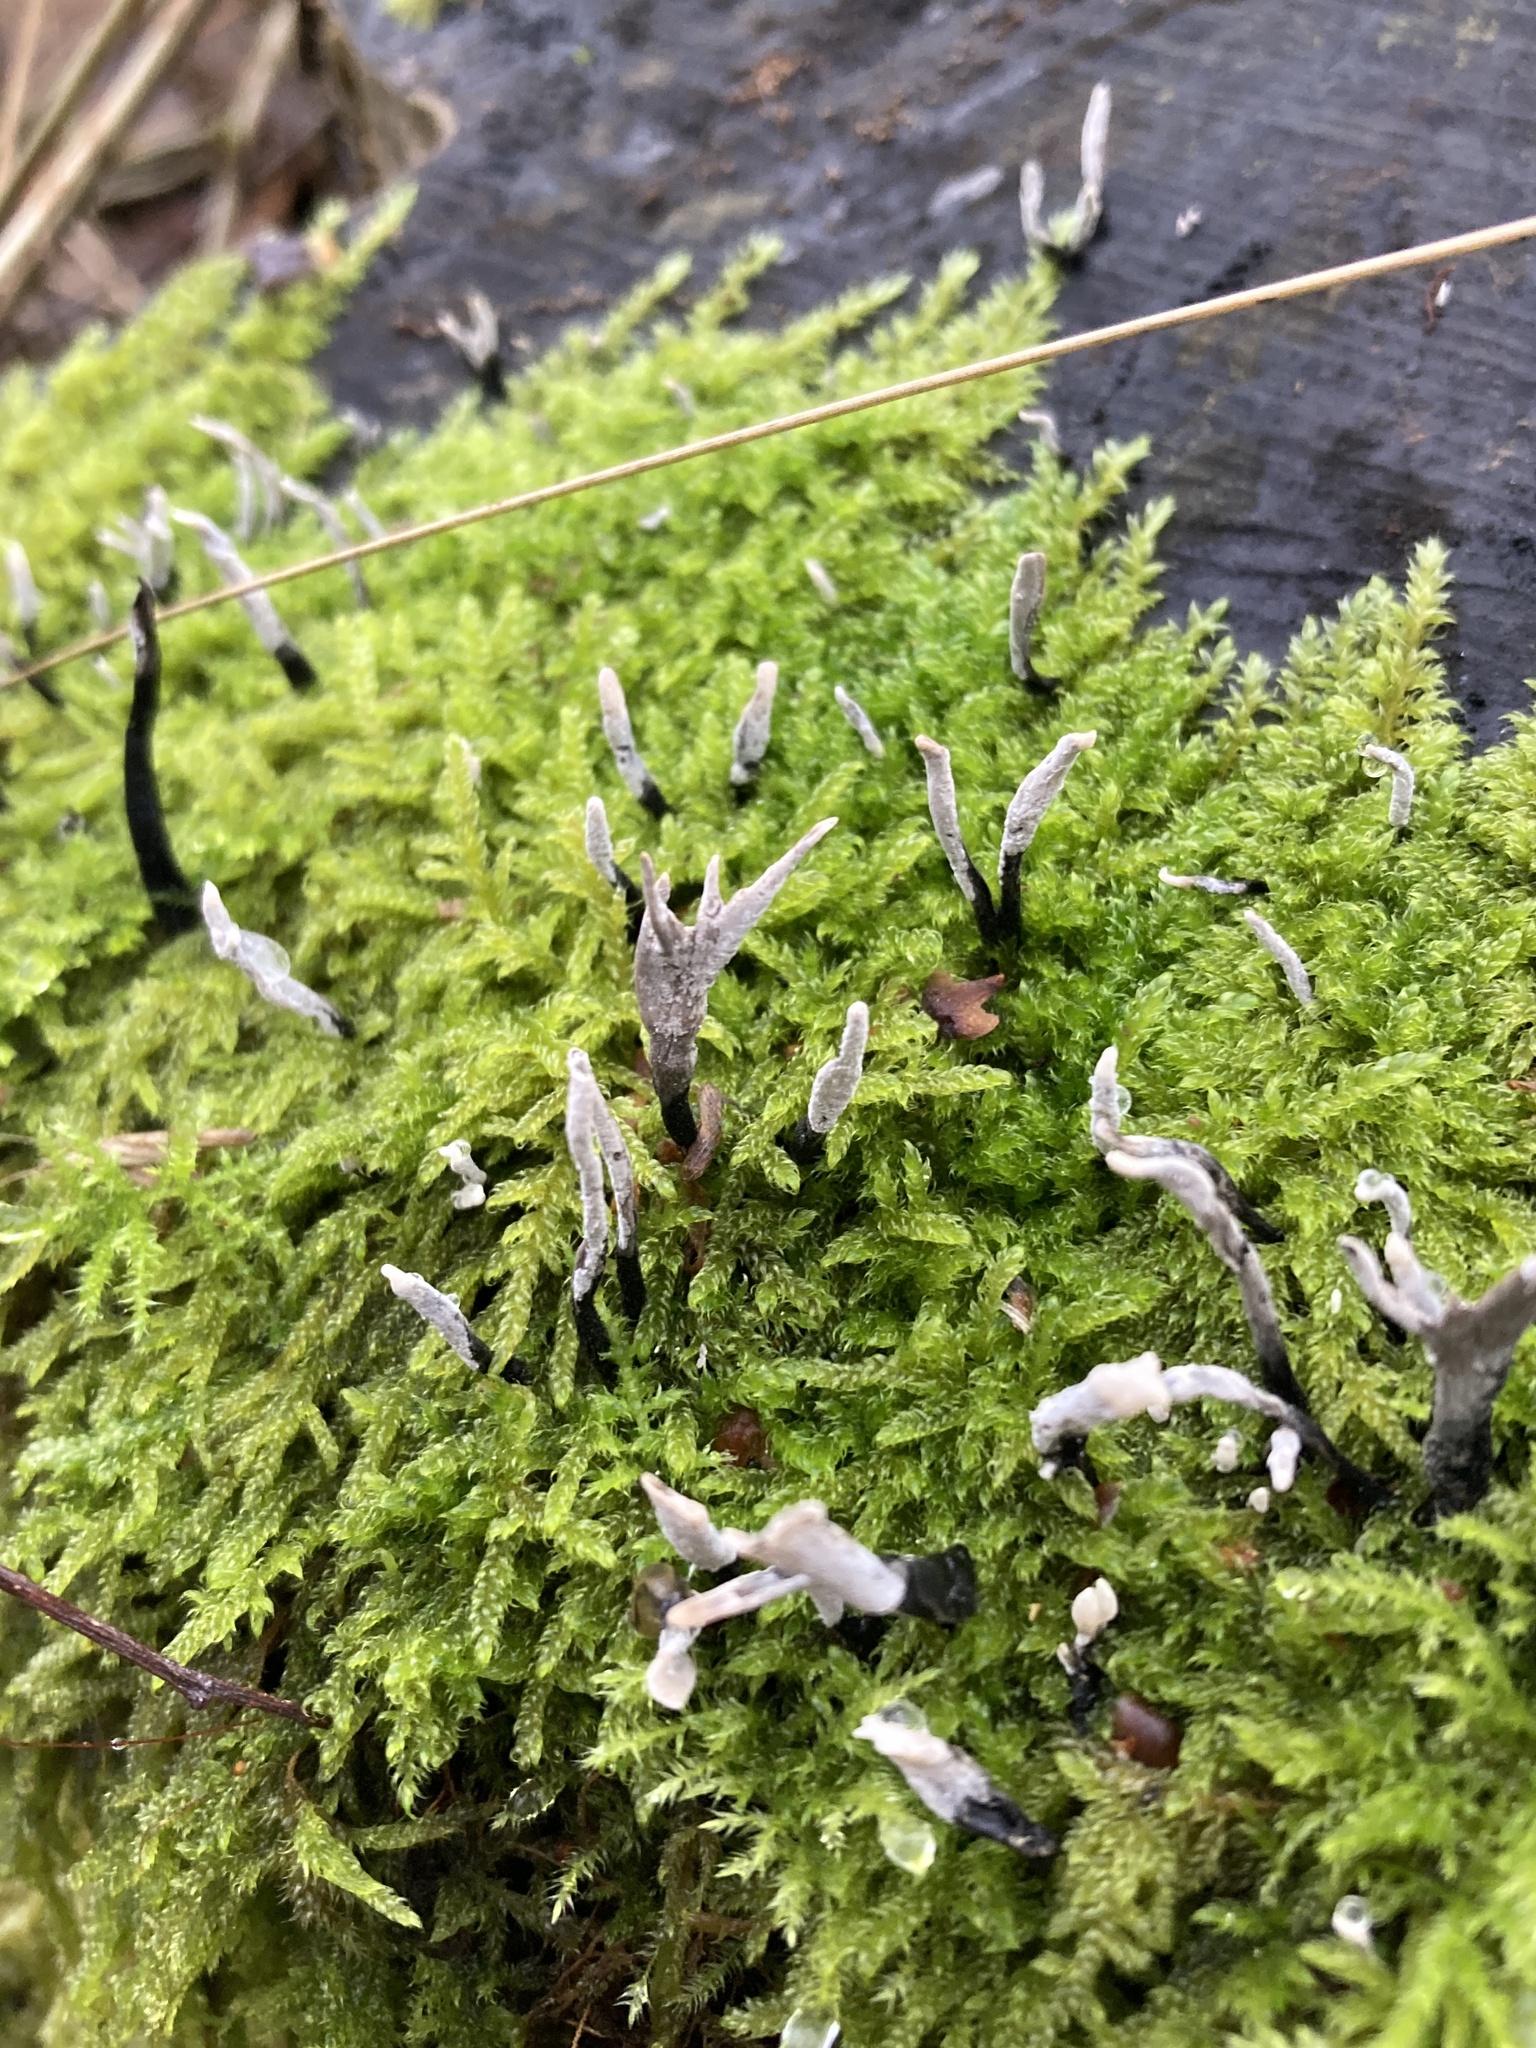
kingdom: Fungi
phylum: Ascomycota
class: Sordariomycetes
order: Xylariales
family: Xylariaceae
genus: Xylaria
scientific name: Xylaria hypoxylon
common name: Candle-snuff fungus
